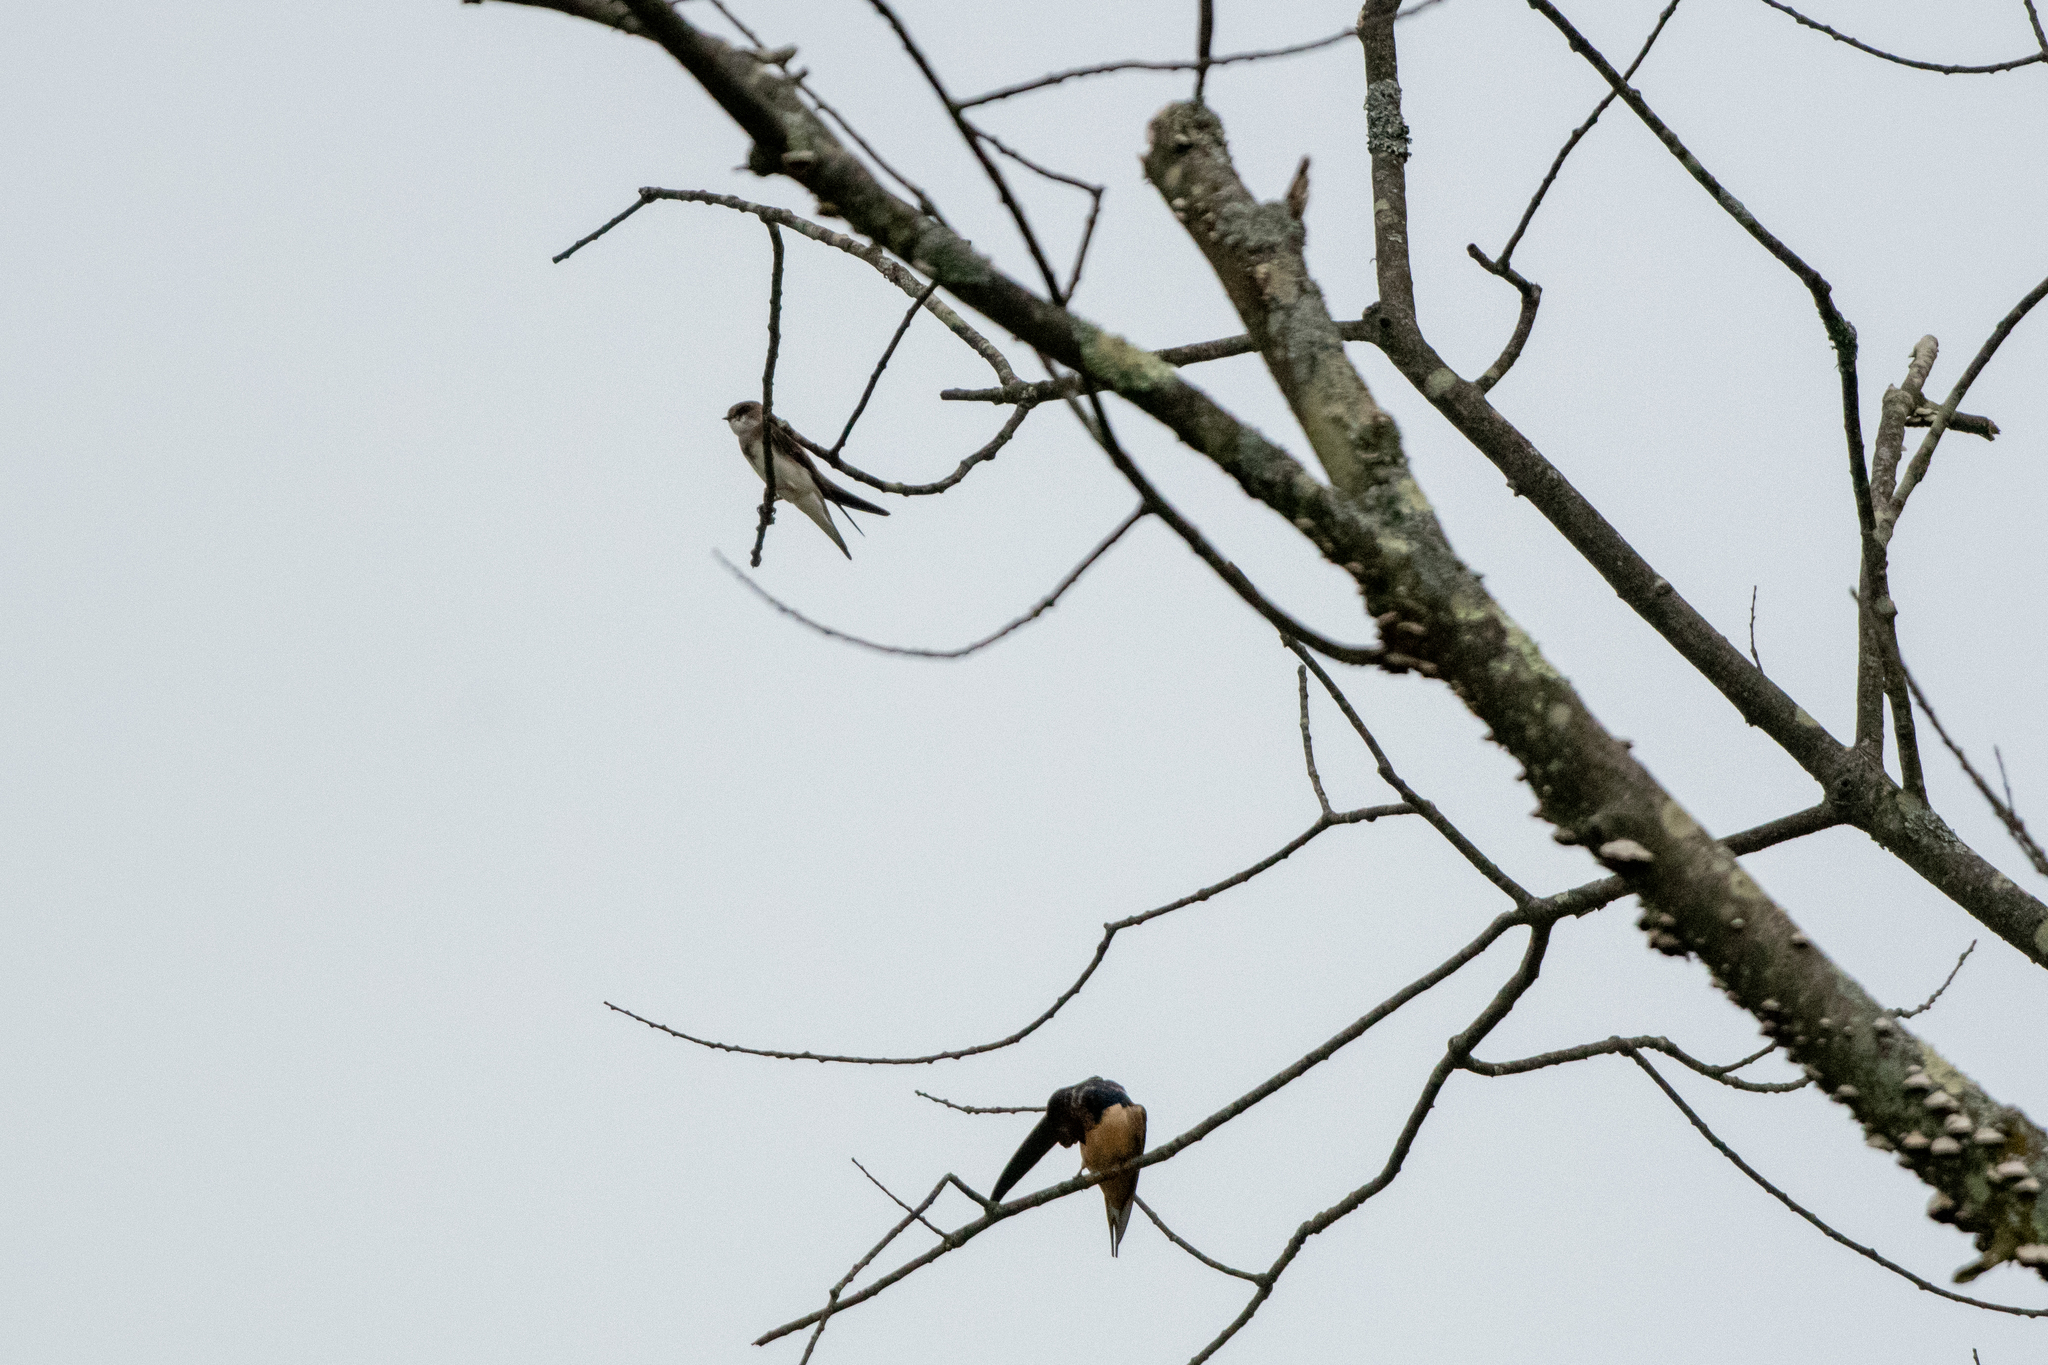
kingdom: Animalia
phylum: Chordata
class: Aves
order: Passeriformes
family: Hirundinidae
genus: Riparia
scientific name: Riparia riparia
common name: Sand martin
